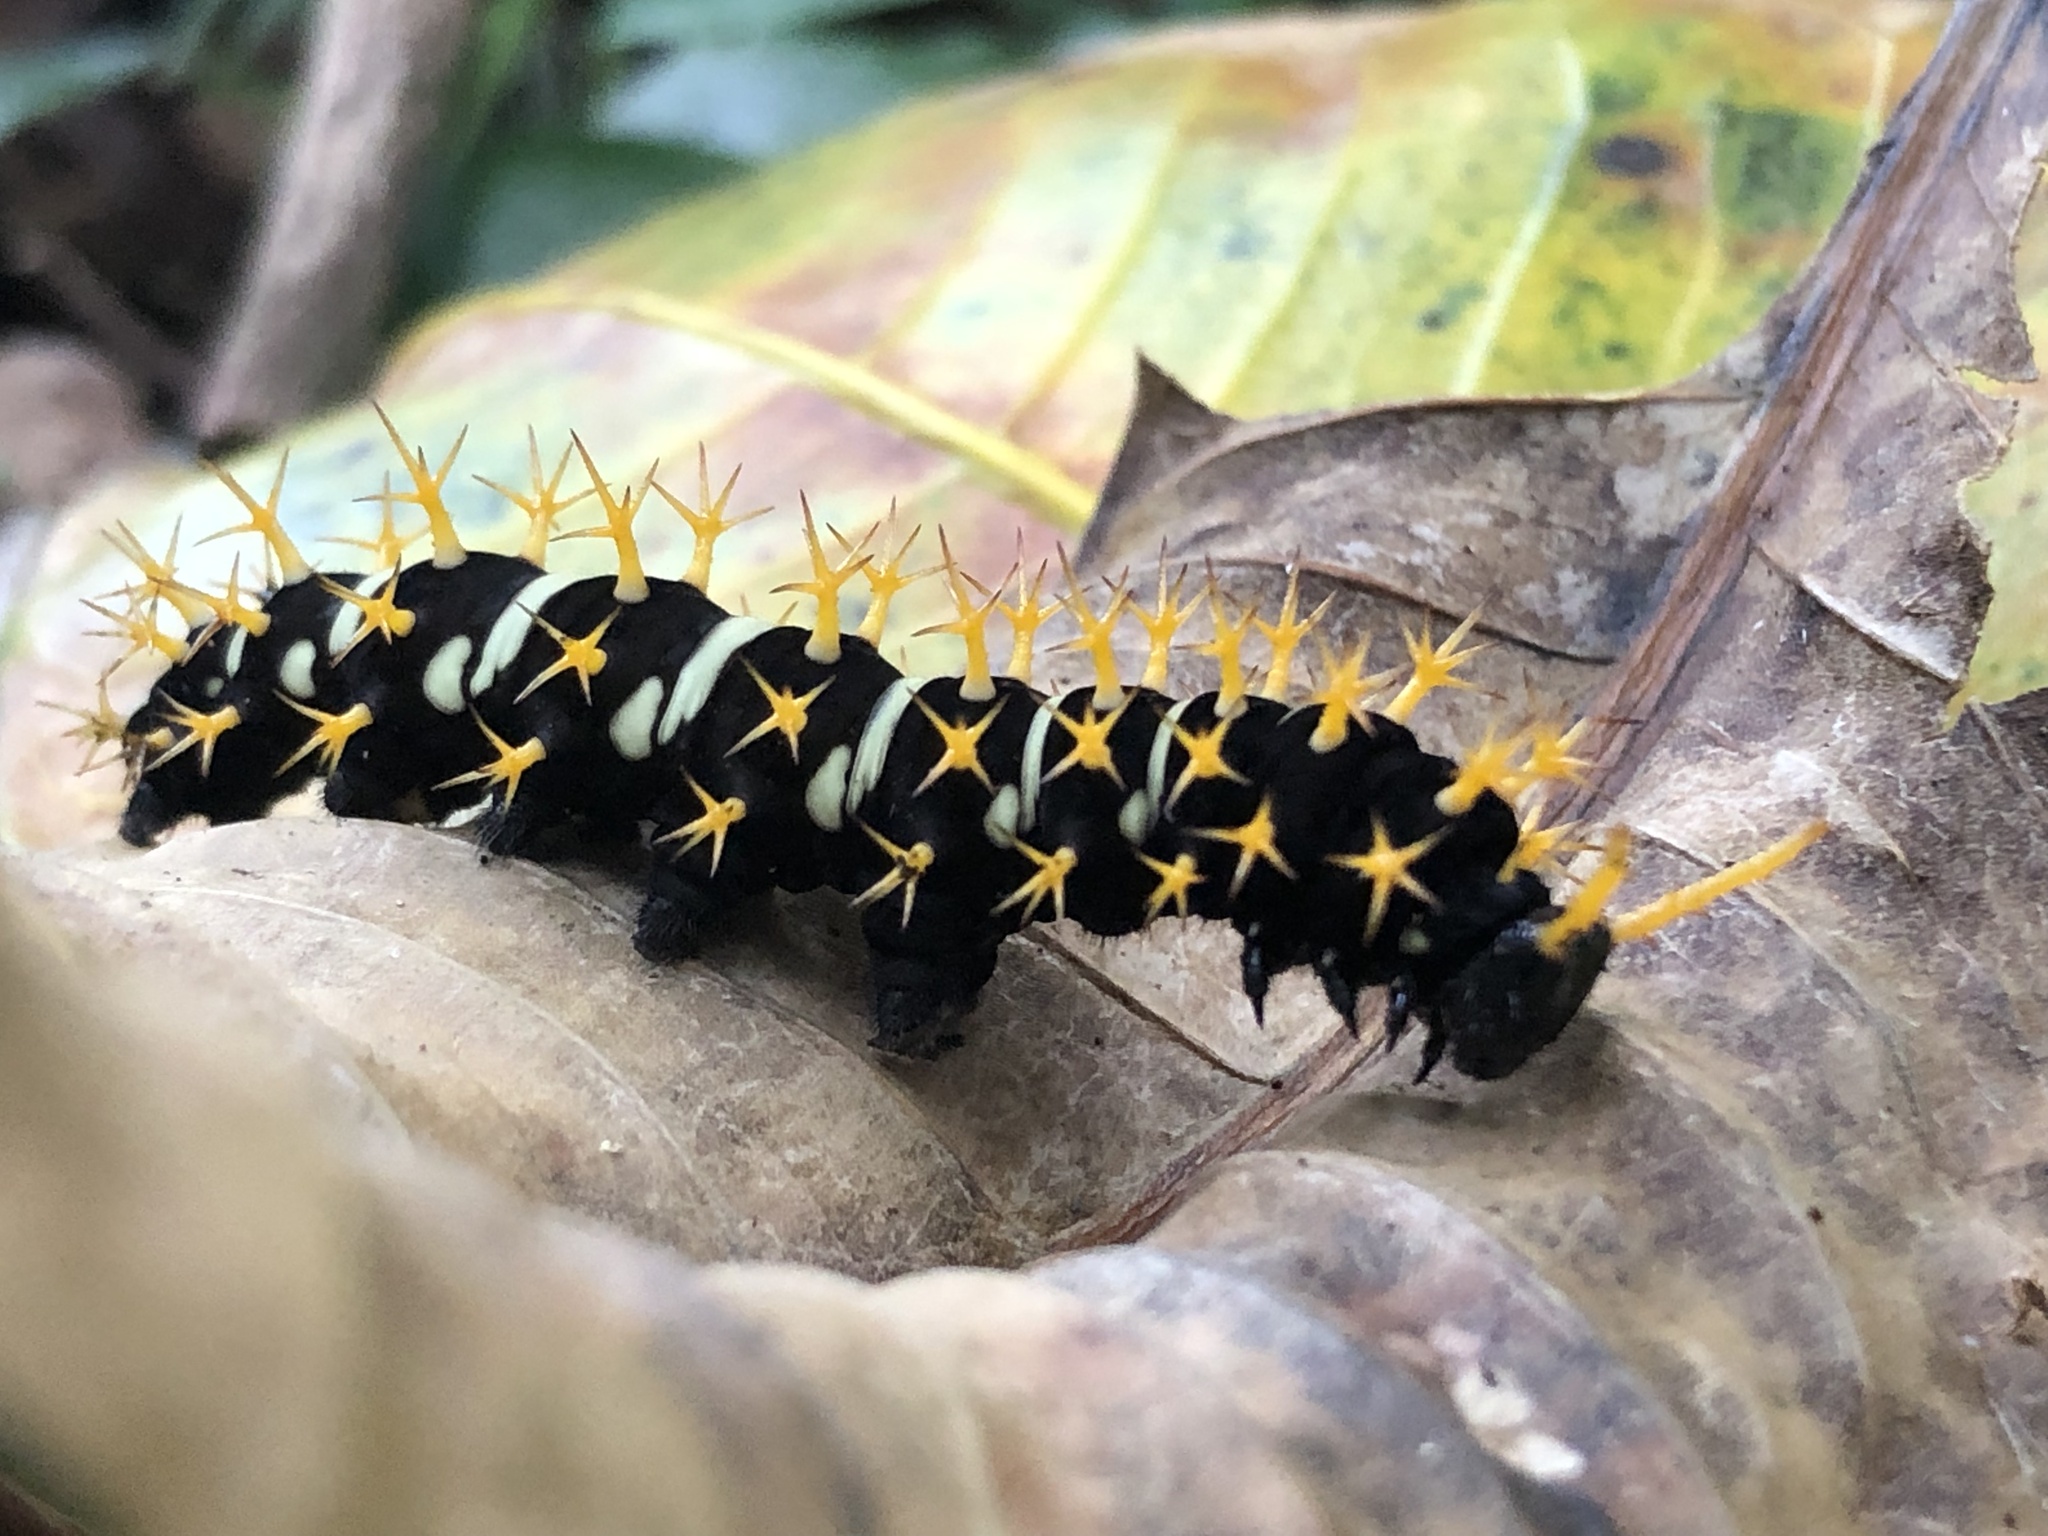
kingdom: Animalia
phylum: Arthropoda
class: Insecta
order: Lepidoptera
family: Nymphalidae
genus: Colobura
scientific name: Colobura annulata
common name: New beauty
